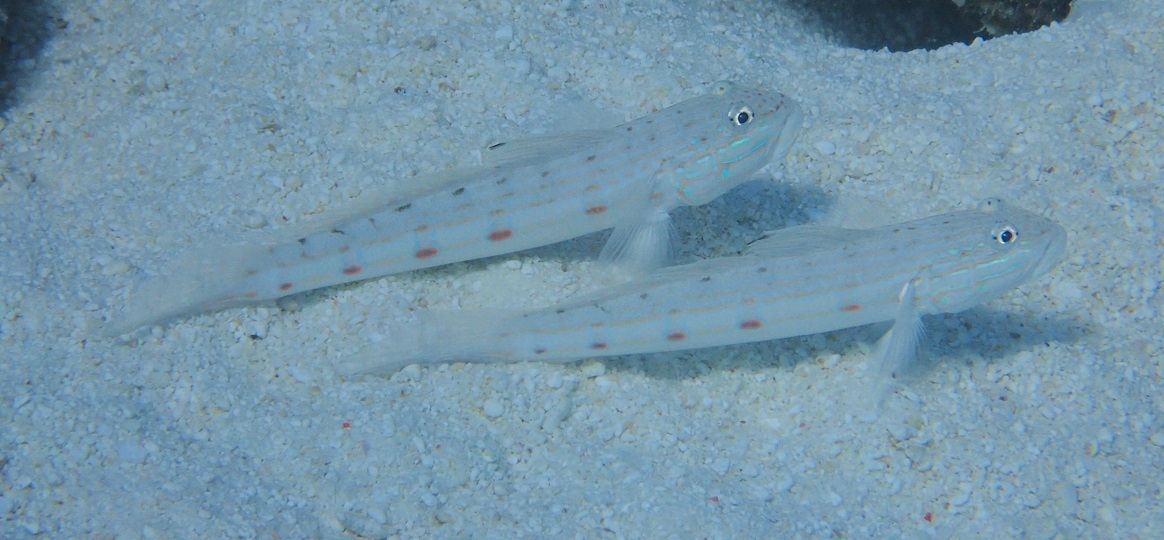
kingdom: Animalia
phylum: Chordata
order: Perciformes
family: Gobiidae
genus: Valenciennea
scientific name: Valenciennea longipinnis
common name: Longfinned goby
